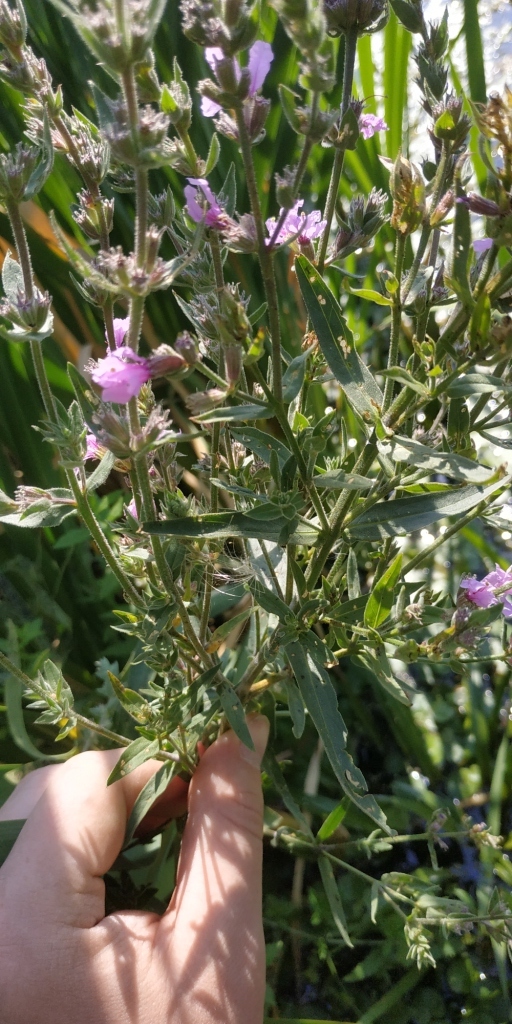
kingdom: Plantae
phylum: Tracheophyta
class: Magnoliopsida
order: Myrtales
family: Lythraceae
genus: Lythrum
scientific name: Lythrum salicaria
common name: Purple loosestrife
